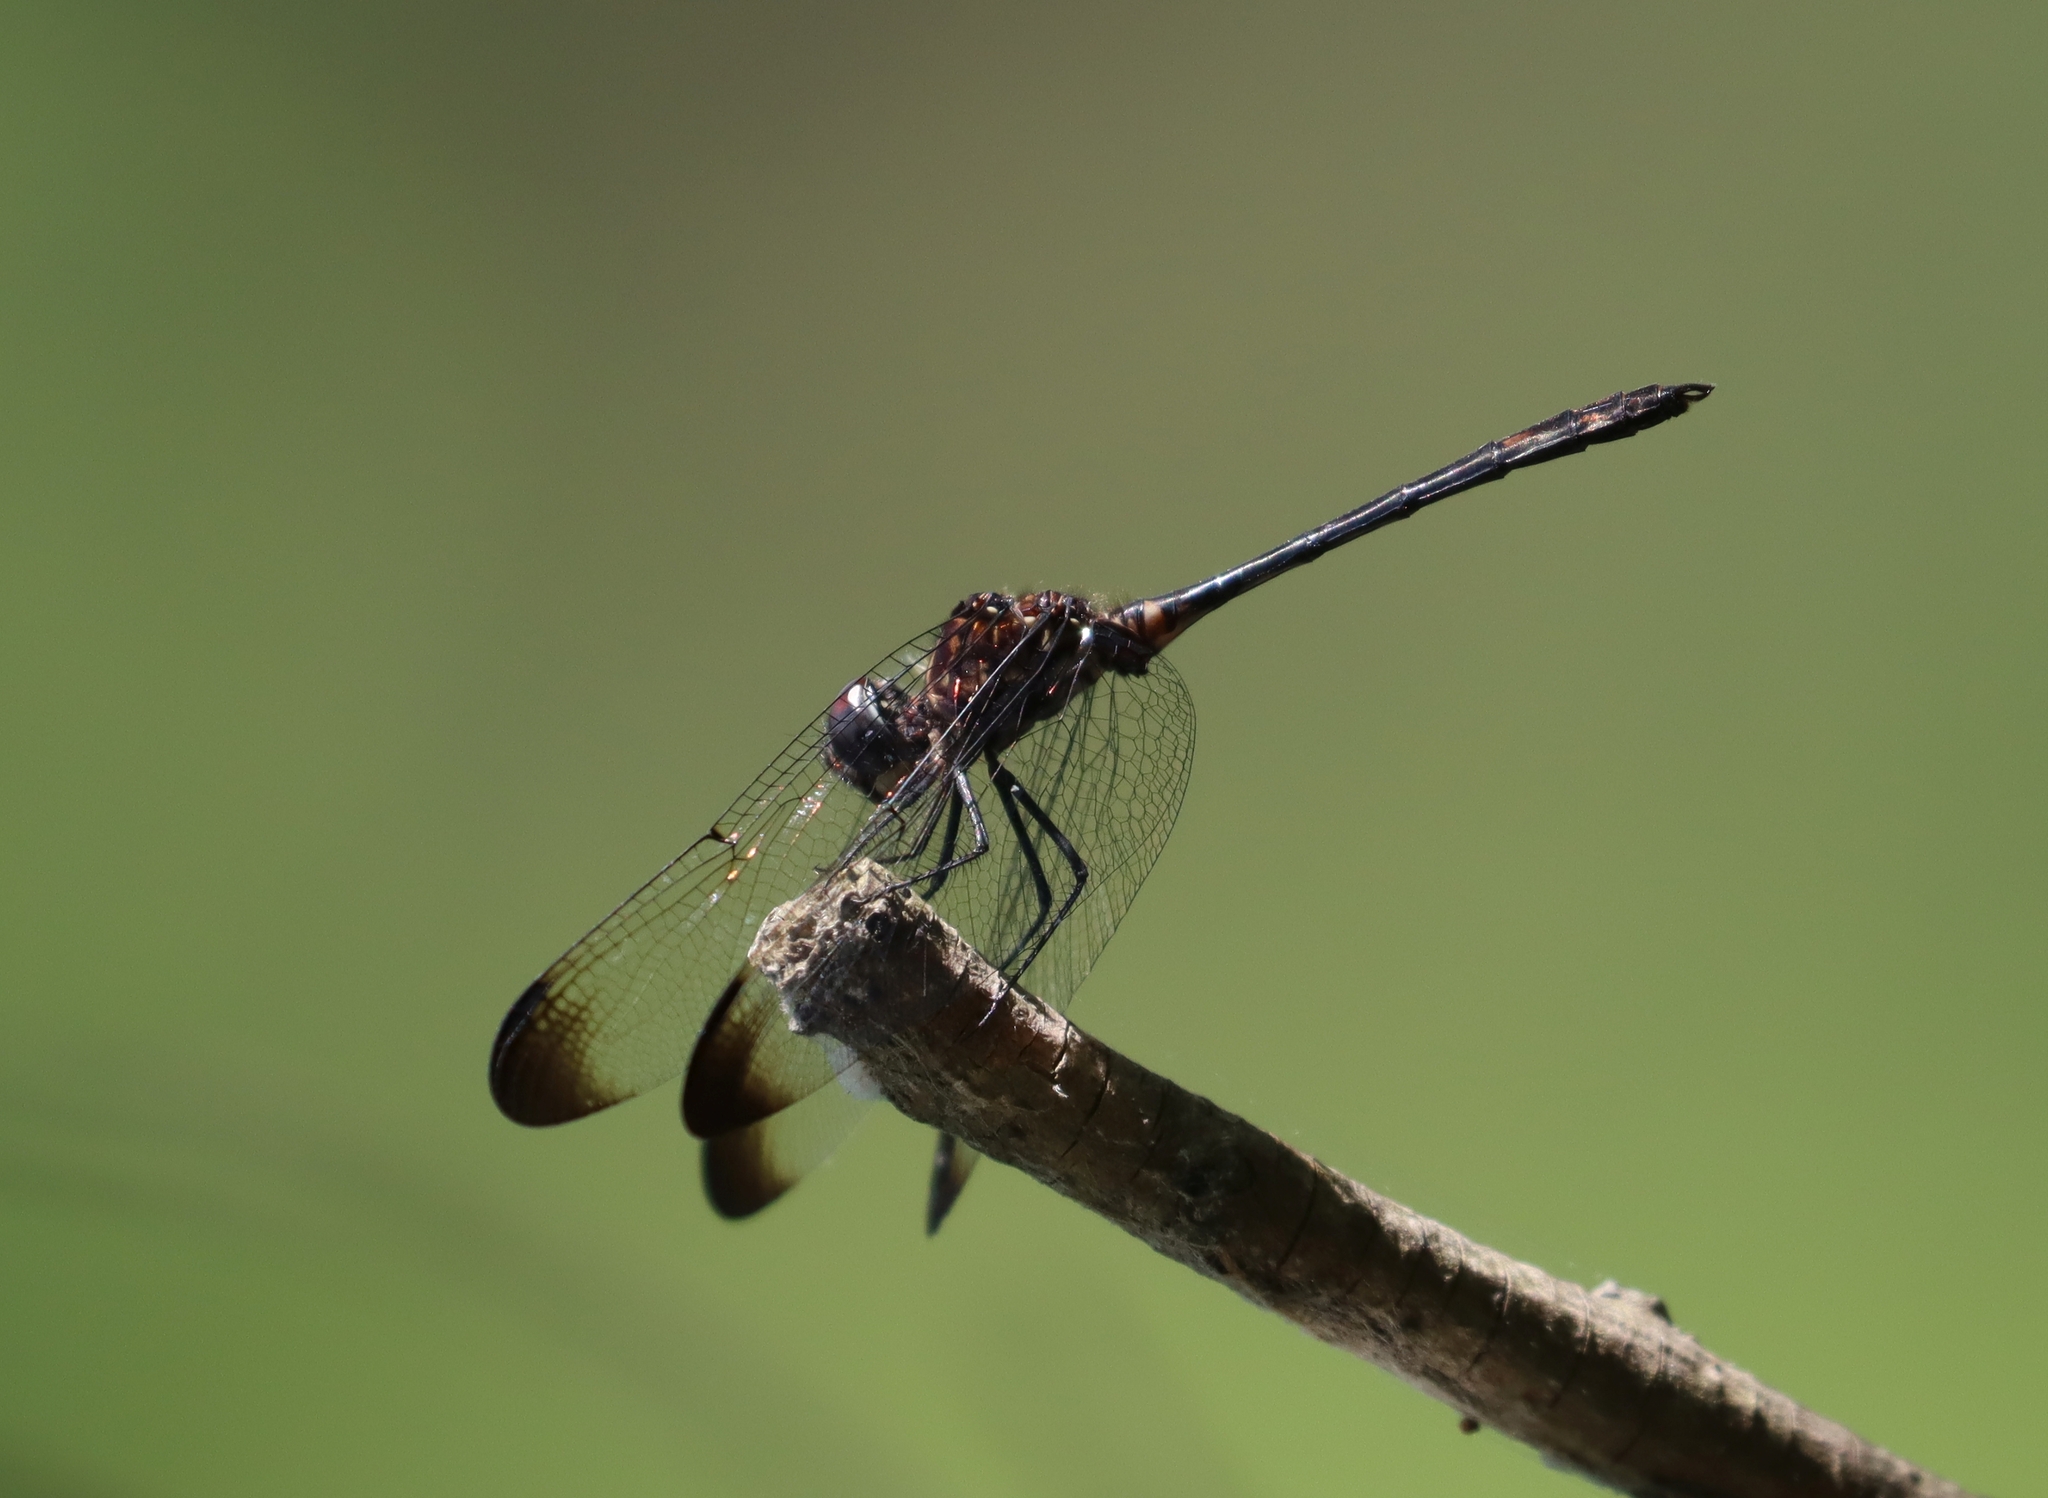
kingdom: Animalia
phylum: Arthropoda
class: Insecta
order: Odonata
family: Libellulidae
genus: Dythemis
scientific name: Dythemis velox
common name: Swift setwing
